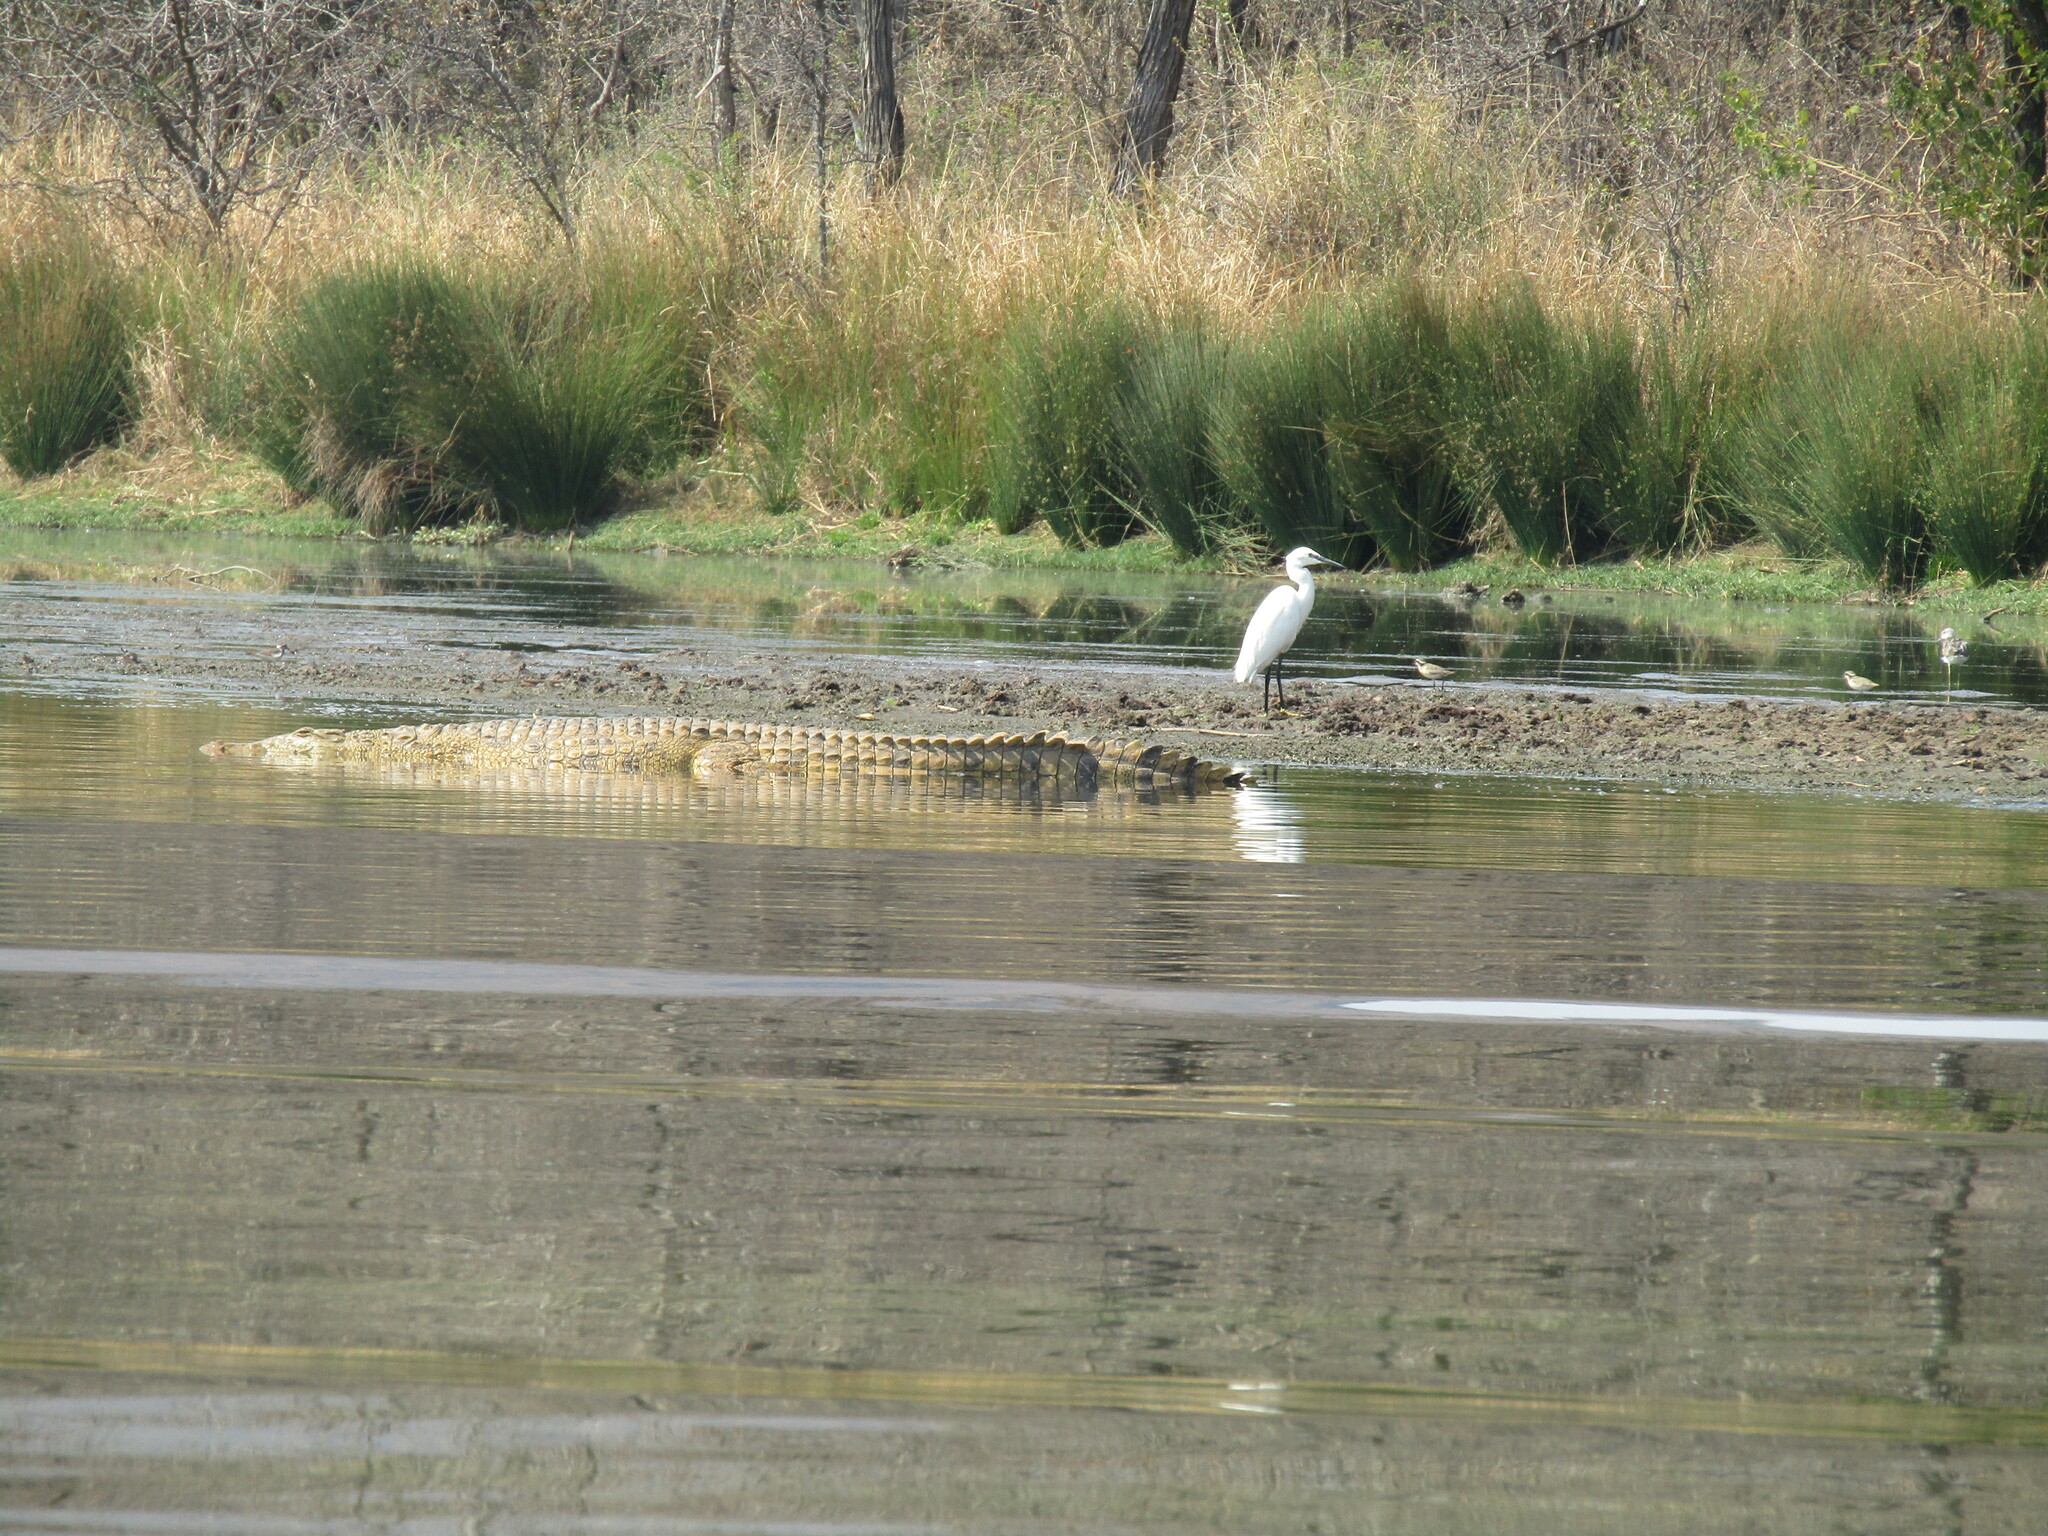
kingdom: Animalia
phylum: Chordata
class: Aves
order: Pelecaniformes
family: Ardeidae
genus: Egretta
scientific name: Egretta garzetta
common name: Little egret
